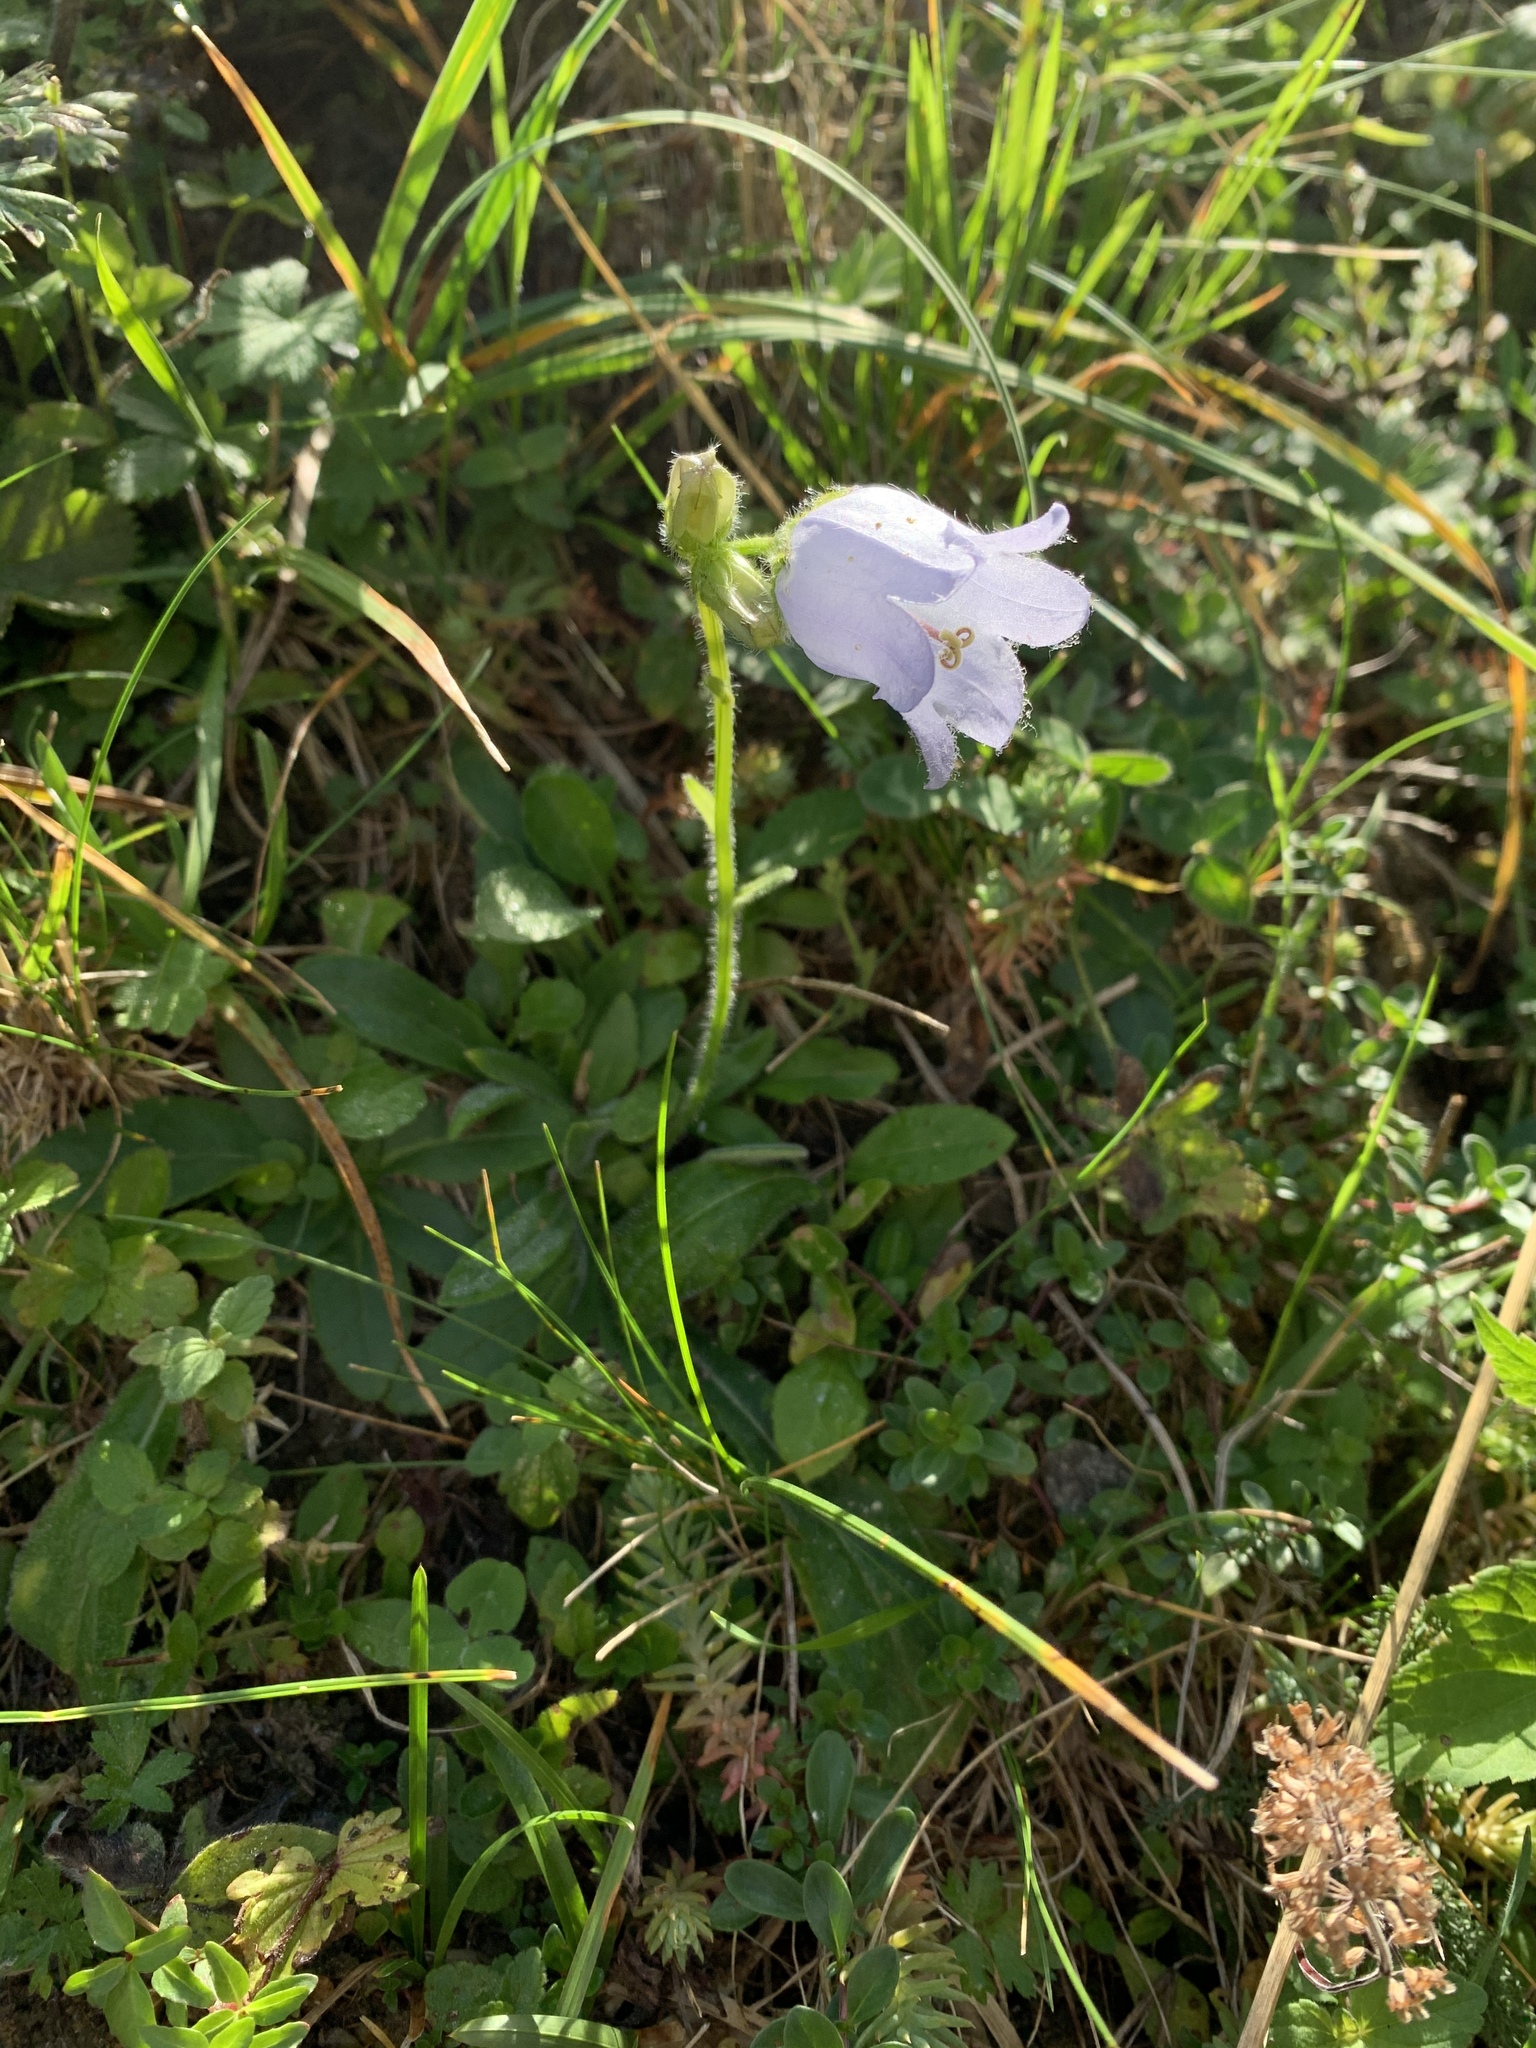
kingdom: Plantae
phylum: Tracheophyta
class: Magnoliopsida
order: Asterales
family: Campanulaceae
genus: Campanula
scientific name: Campanula barbata
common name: Bearded bellflower
